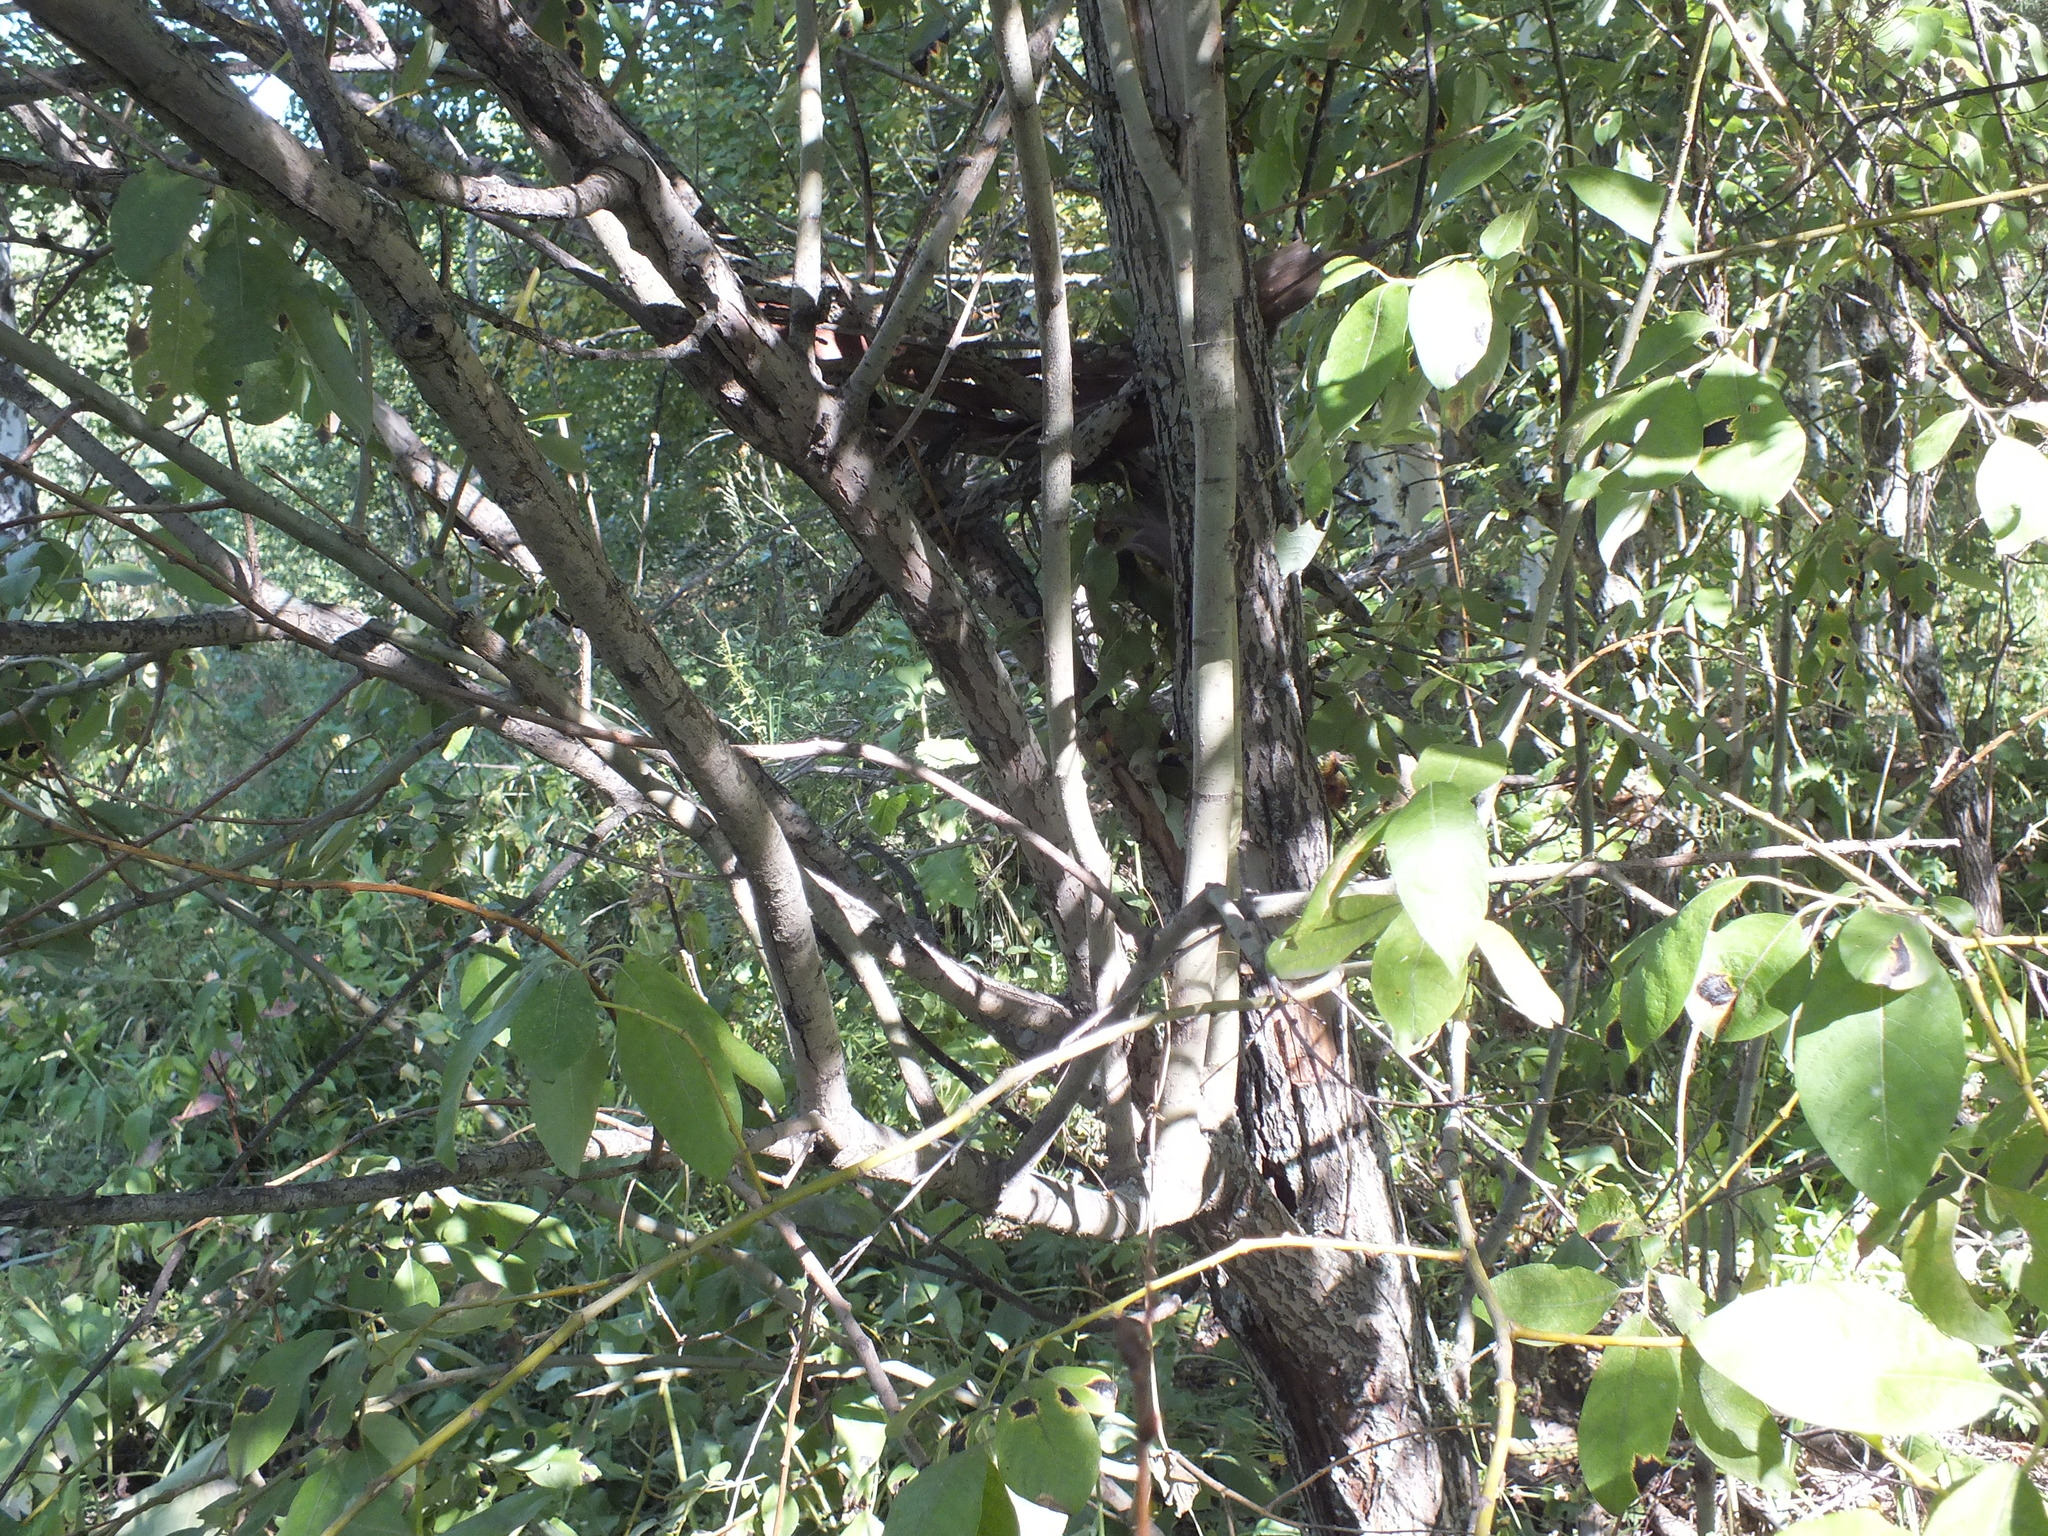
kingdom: Plantae
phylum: Tracheophyta
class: Magnoliopsida
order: Malpighiales
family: Salicaceae
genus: Salix
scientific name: Salix caprea
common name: Goat willow
